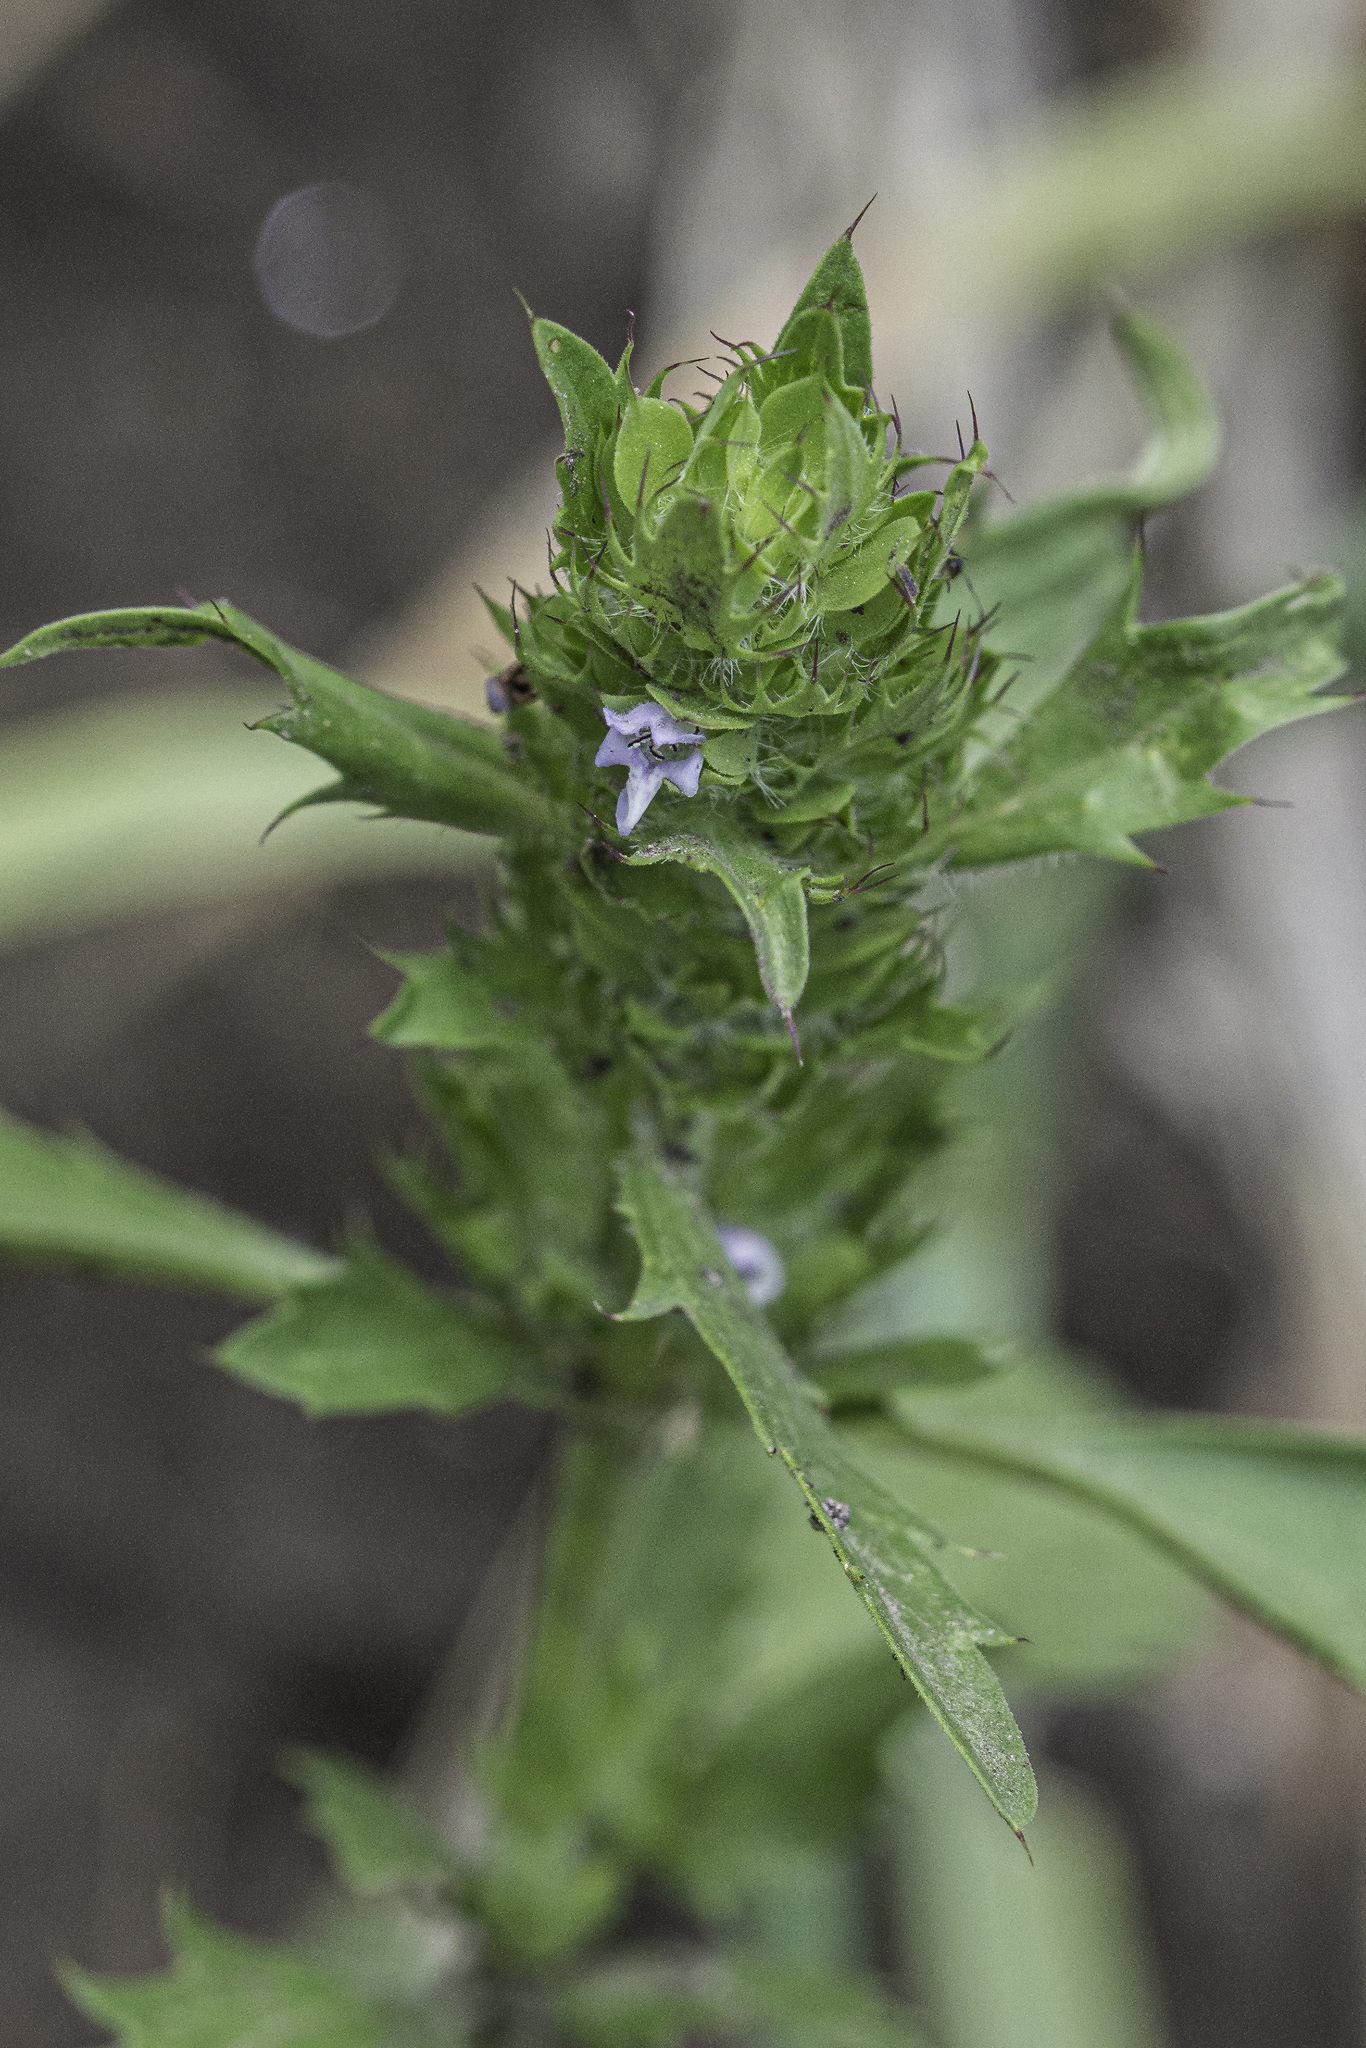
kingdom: Plantae
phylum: Tracheophyta
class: Magnoliopsida
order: Lamiales
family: Lamiaceae
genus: Dracocephalum
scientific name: Dracocephalum parviflorum
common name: American dragonhead
